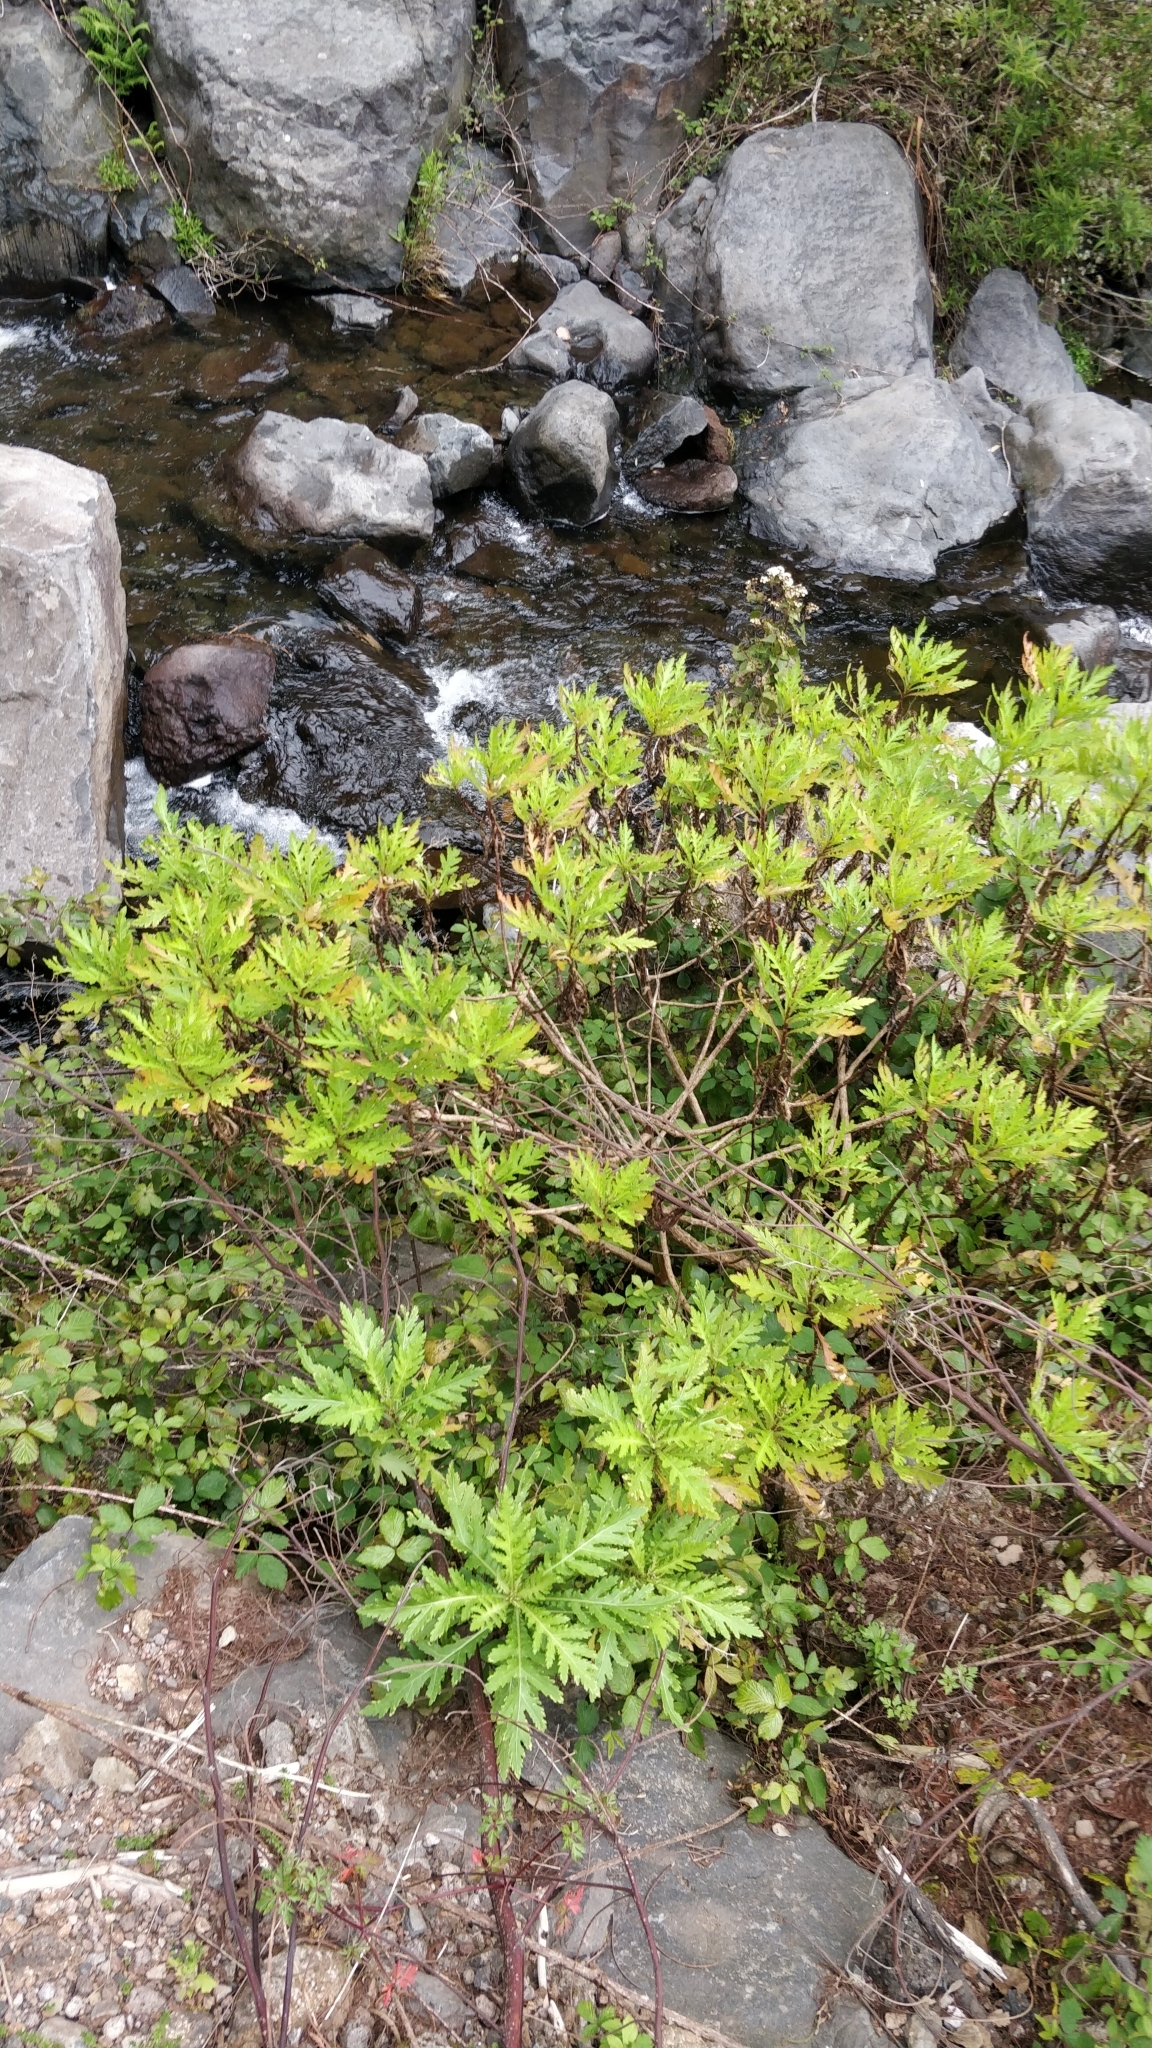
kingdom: Plantae
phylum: Tracheophyta
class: Magnoliopsida
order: Asterales
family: Asteraceae
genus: Argyranthemum
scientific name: Argyranthemum pinnatifidum
